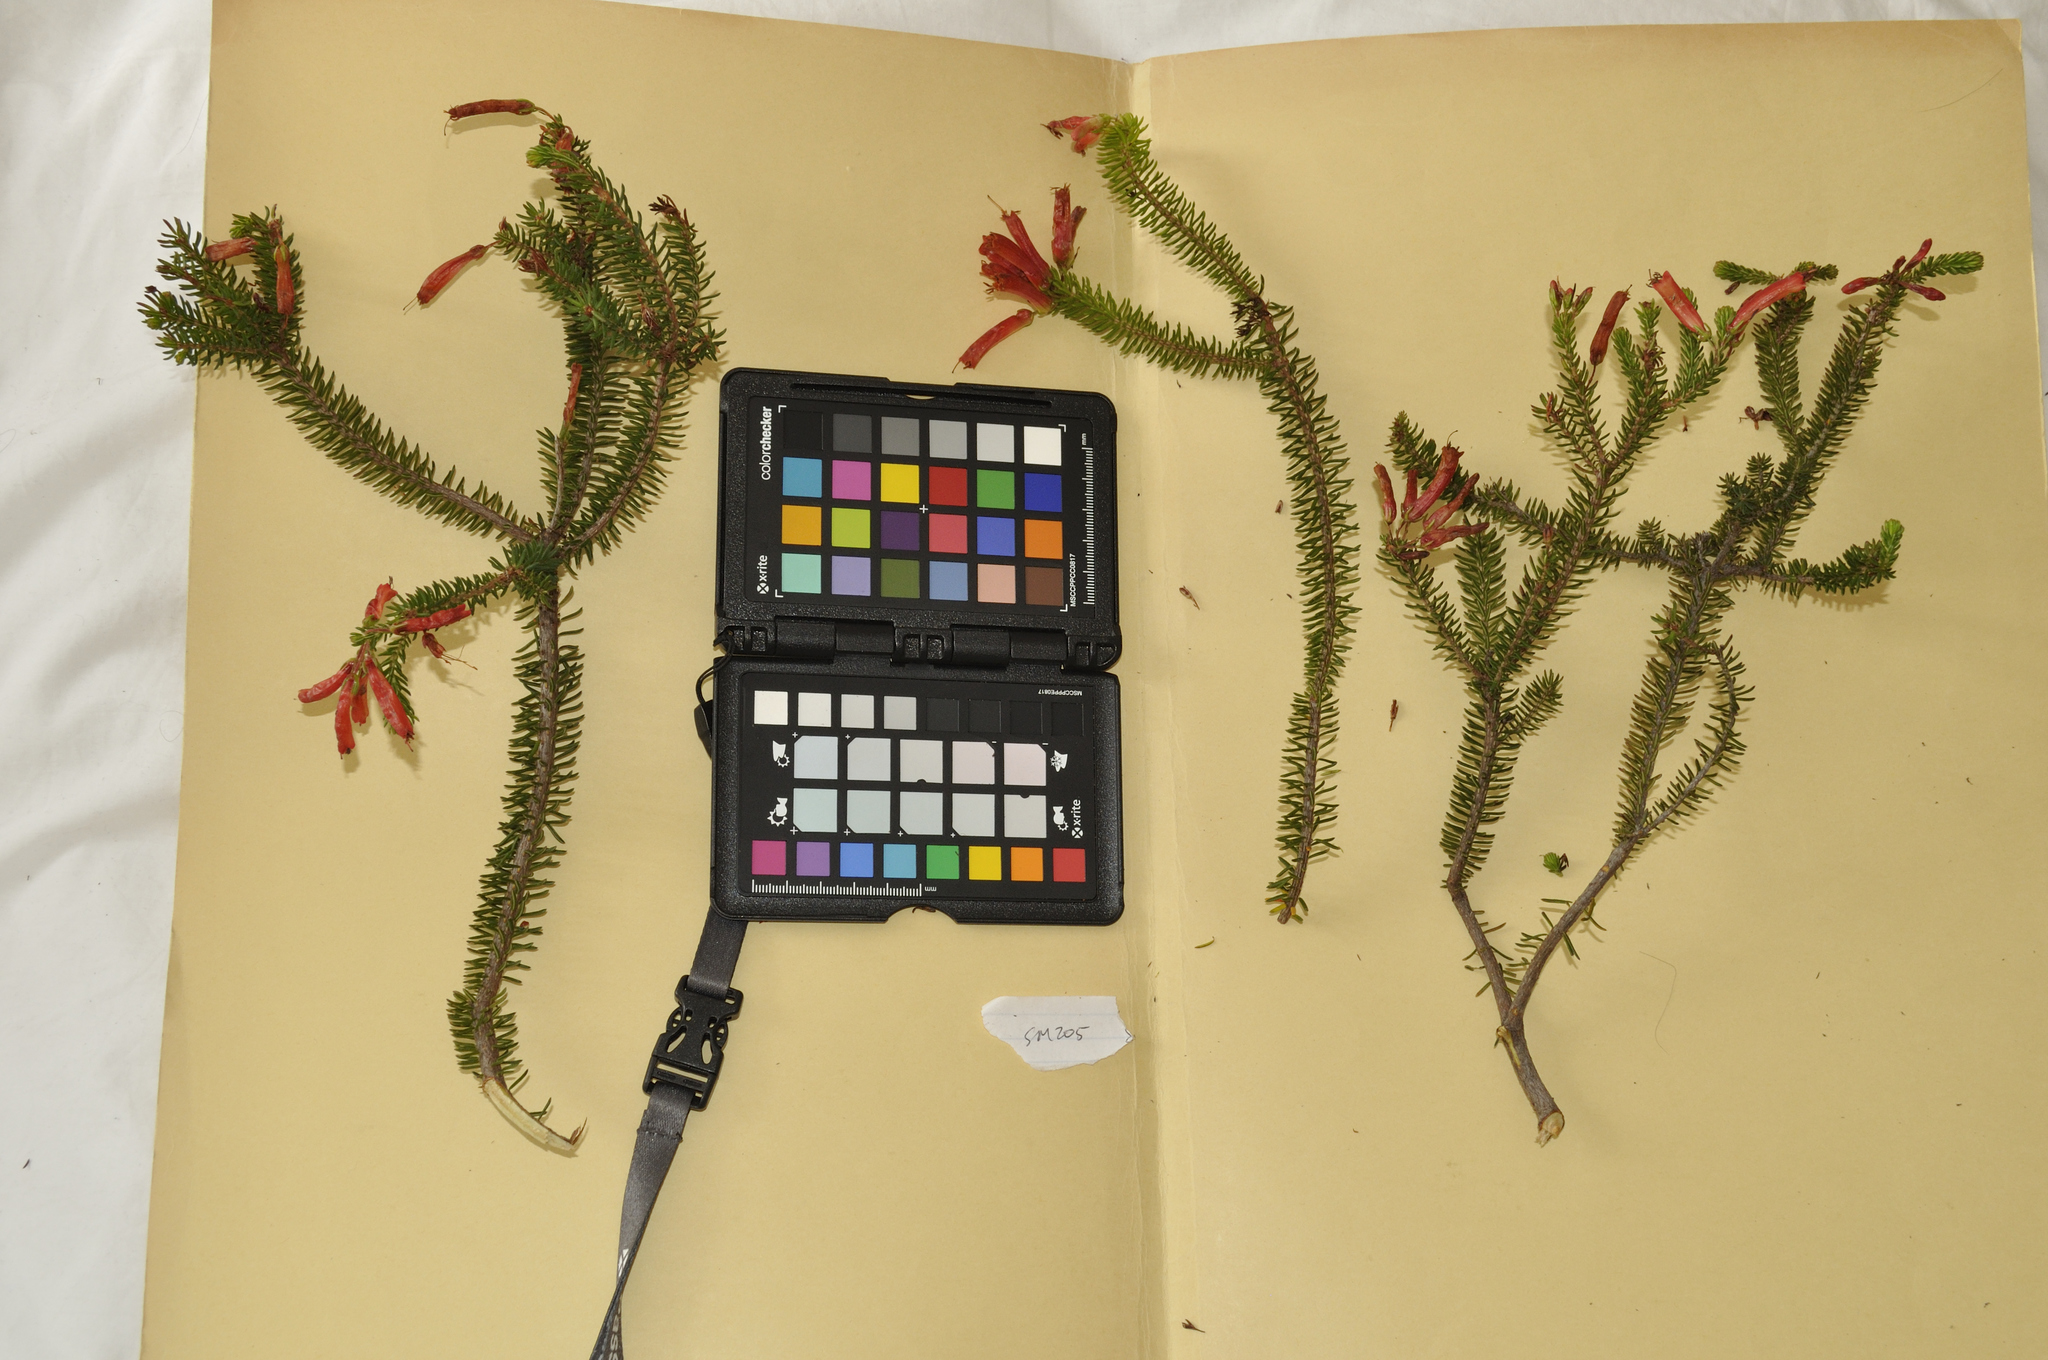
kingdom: Plantae
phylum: Tracheophyta
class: Magnoliopsida
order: Ericales
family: Ericaceae
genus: Erica
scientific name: Erica nevillei
